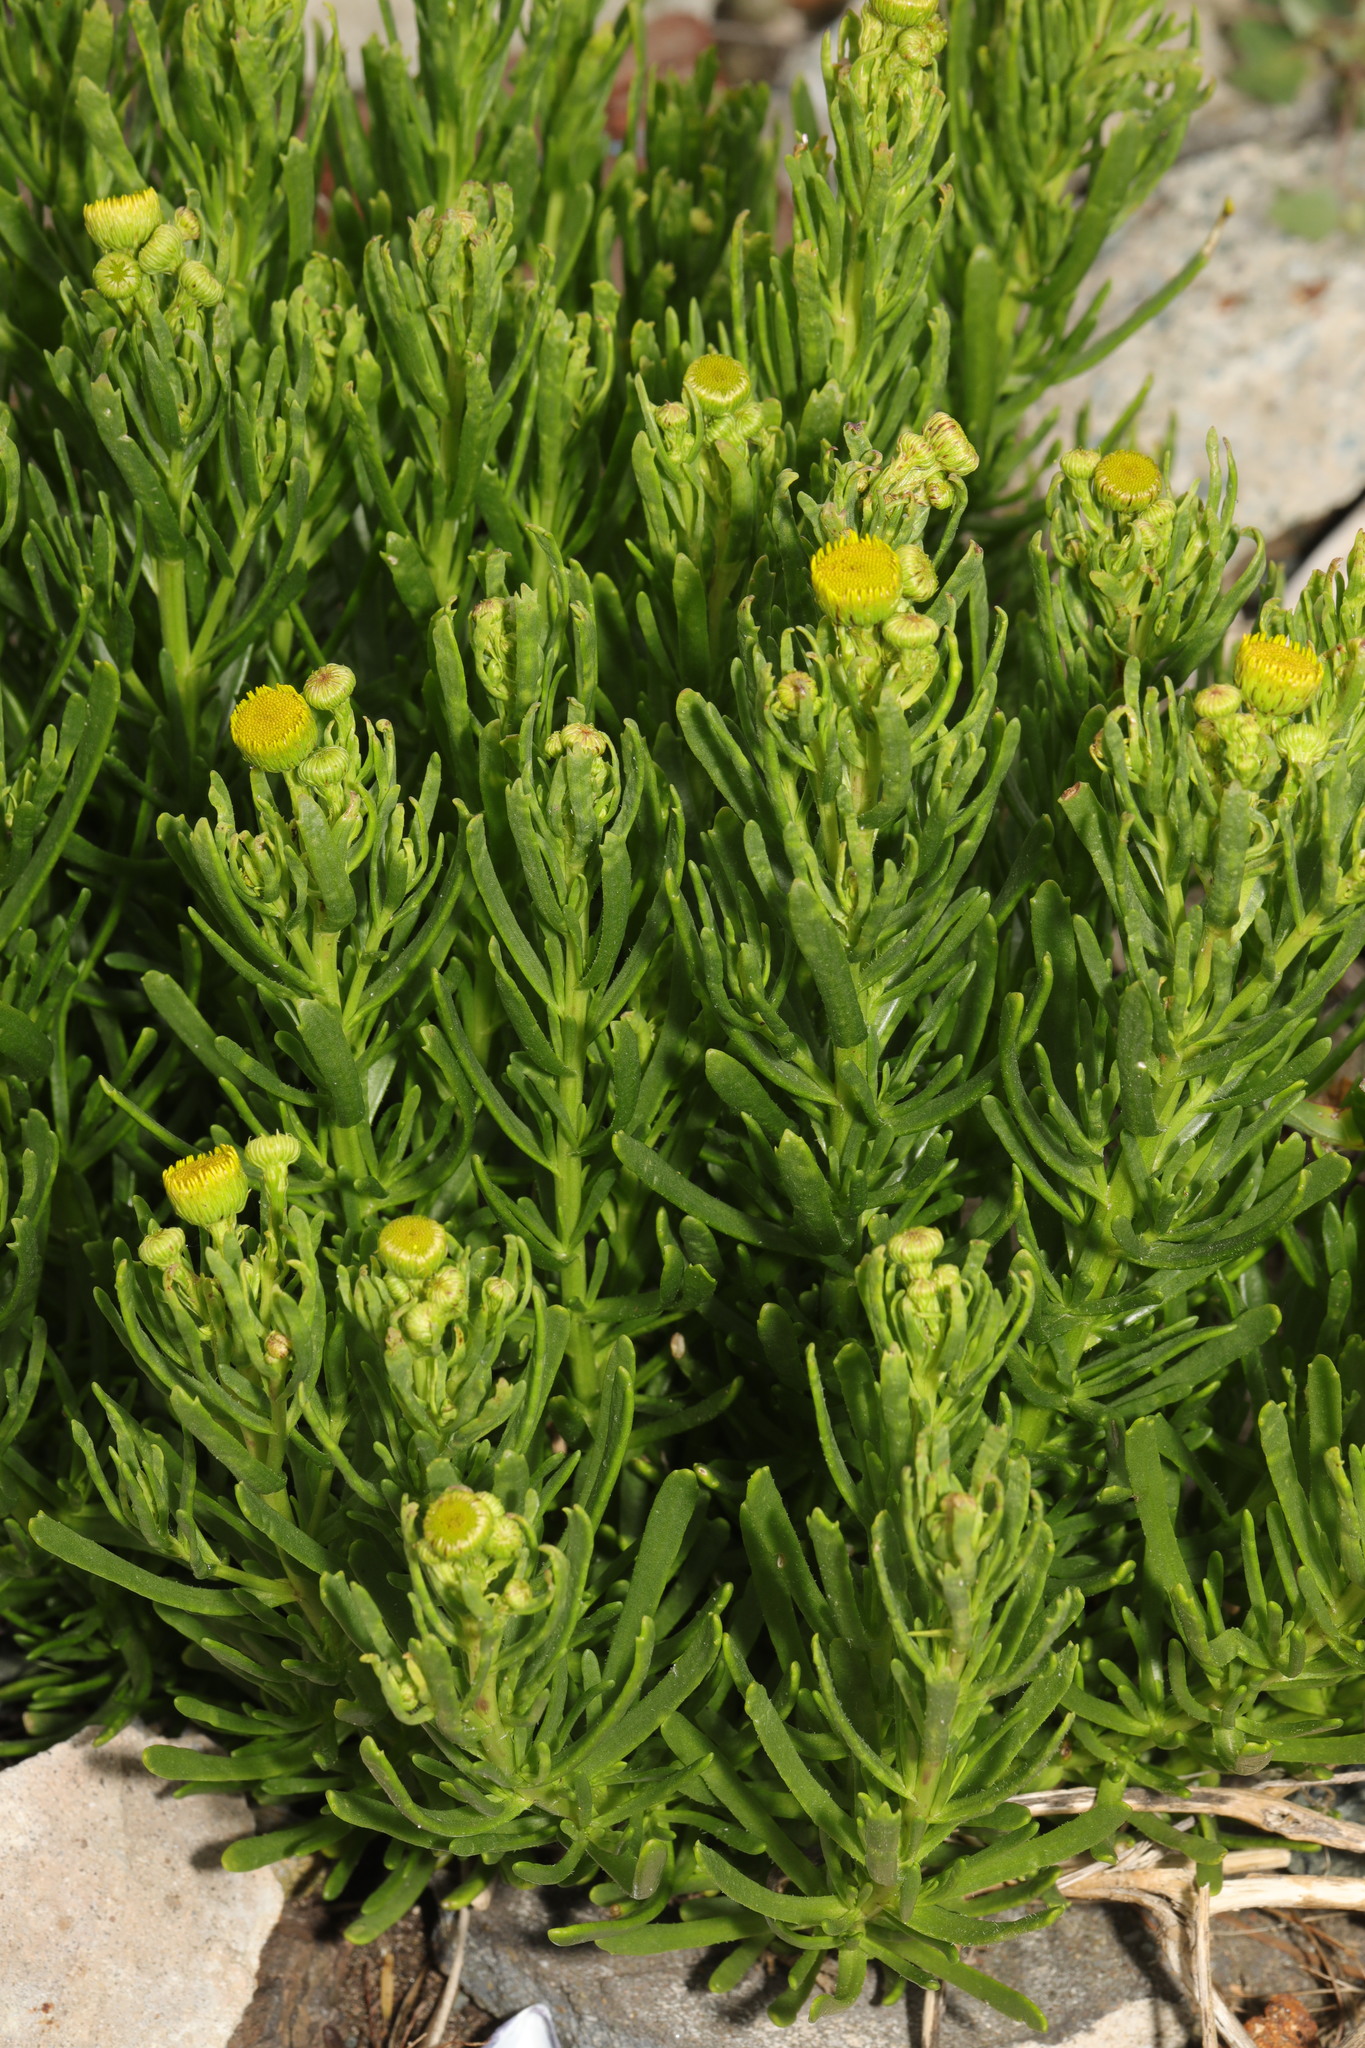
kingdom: Plantae
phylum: Tracheophyta
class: Magnoliopsida
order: Asterales
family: Asteraceae
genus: Limbarda
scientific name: Limbarda crithmoides
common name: Golden samphire
